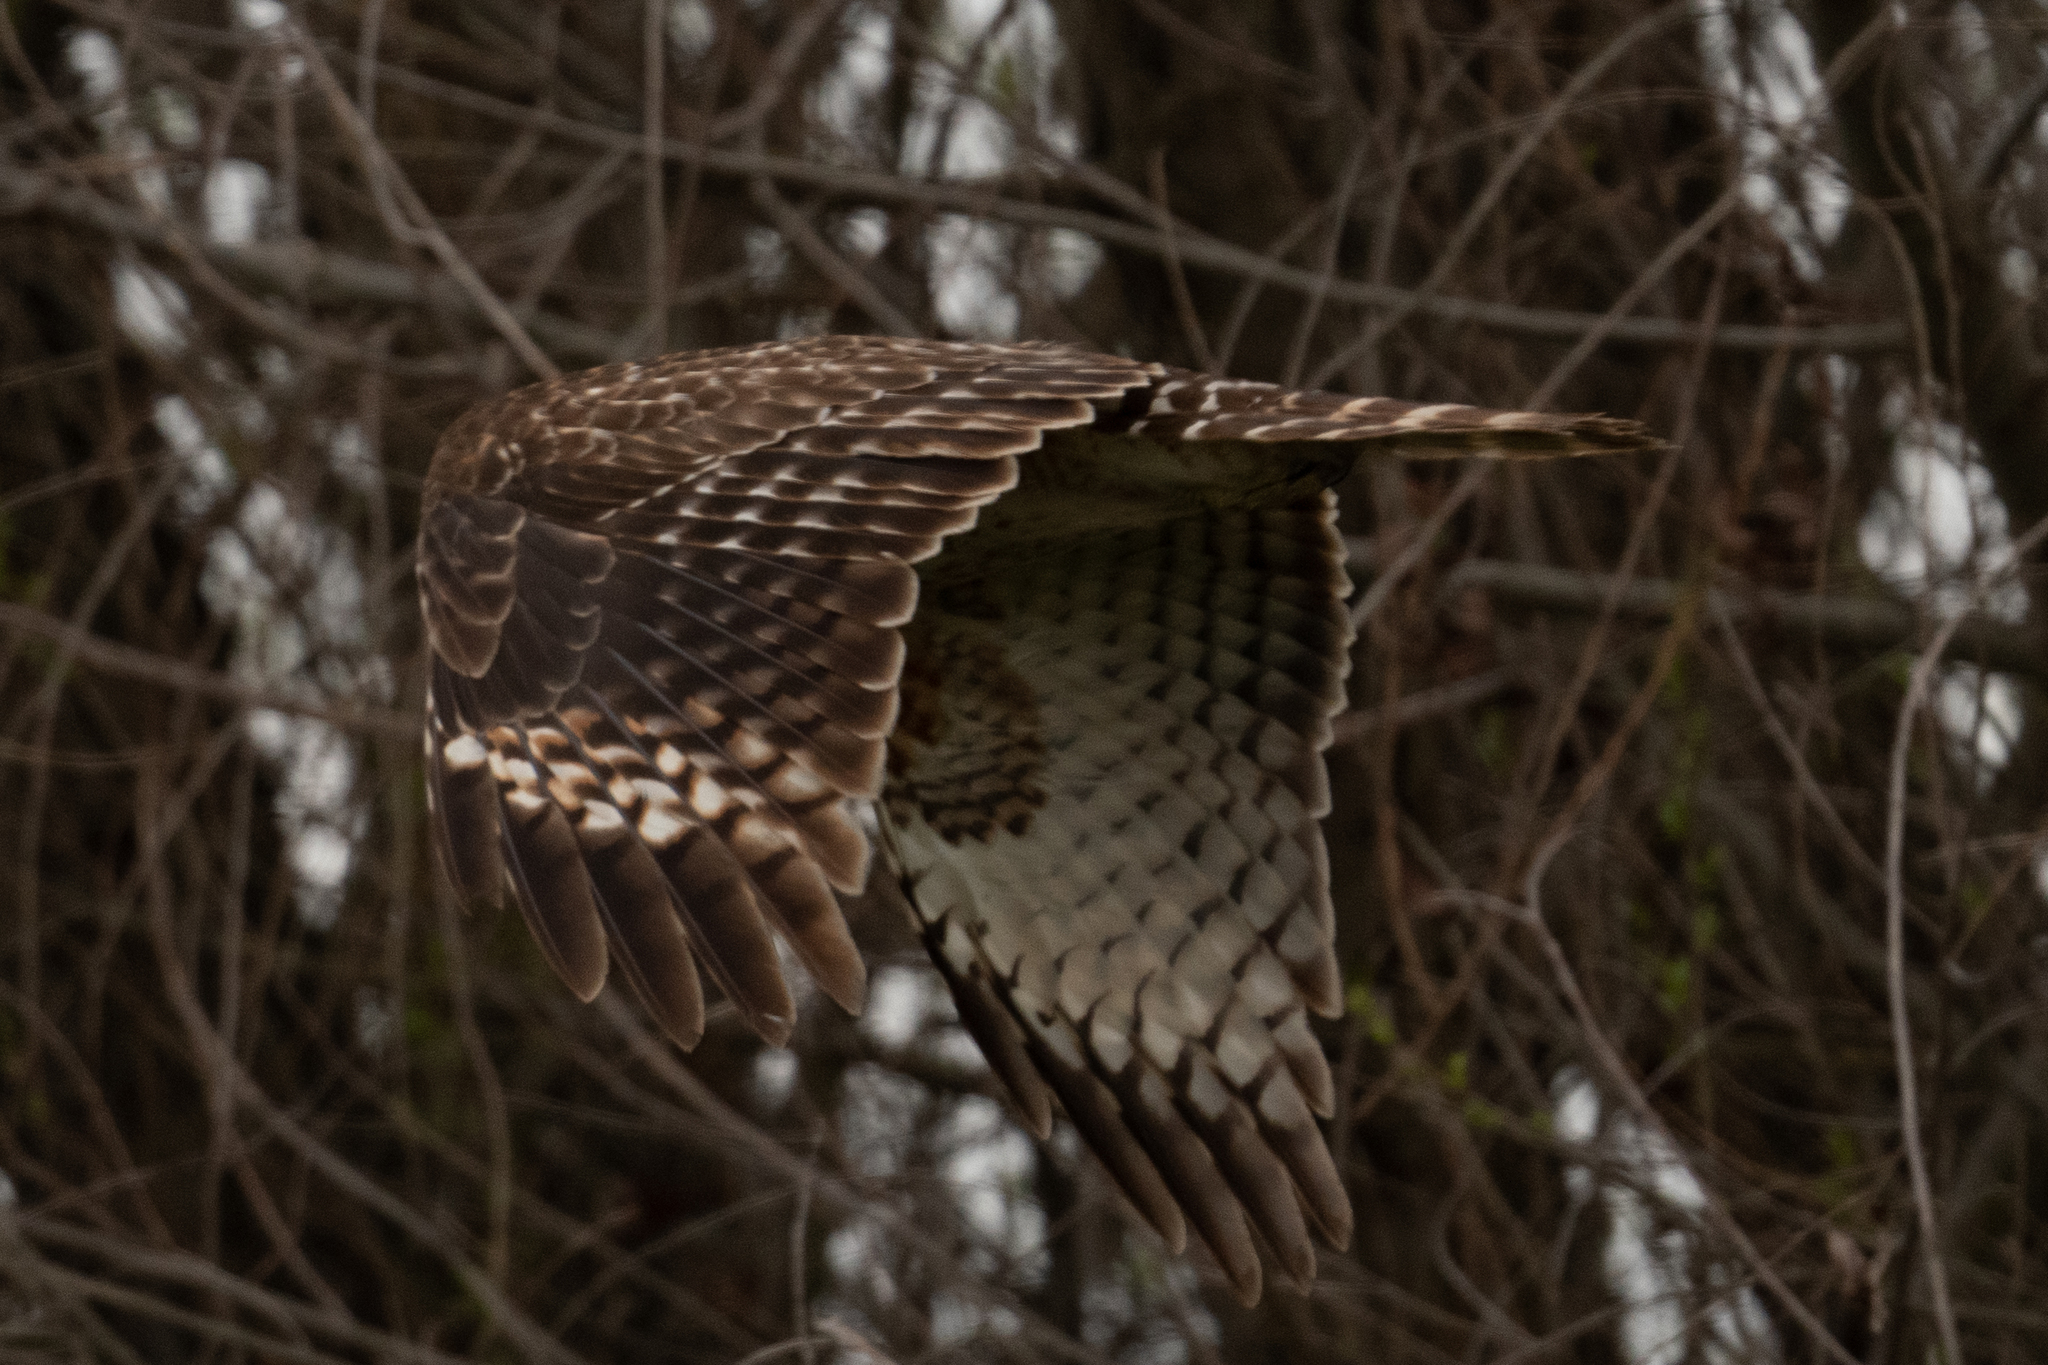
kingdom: Animalia
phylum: Chordata
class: Aves
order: Accipitriformes
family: Accipitridae
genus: Buteo
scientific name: Buteo lineatus
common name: Red-shouldered hawk
